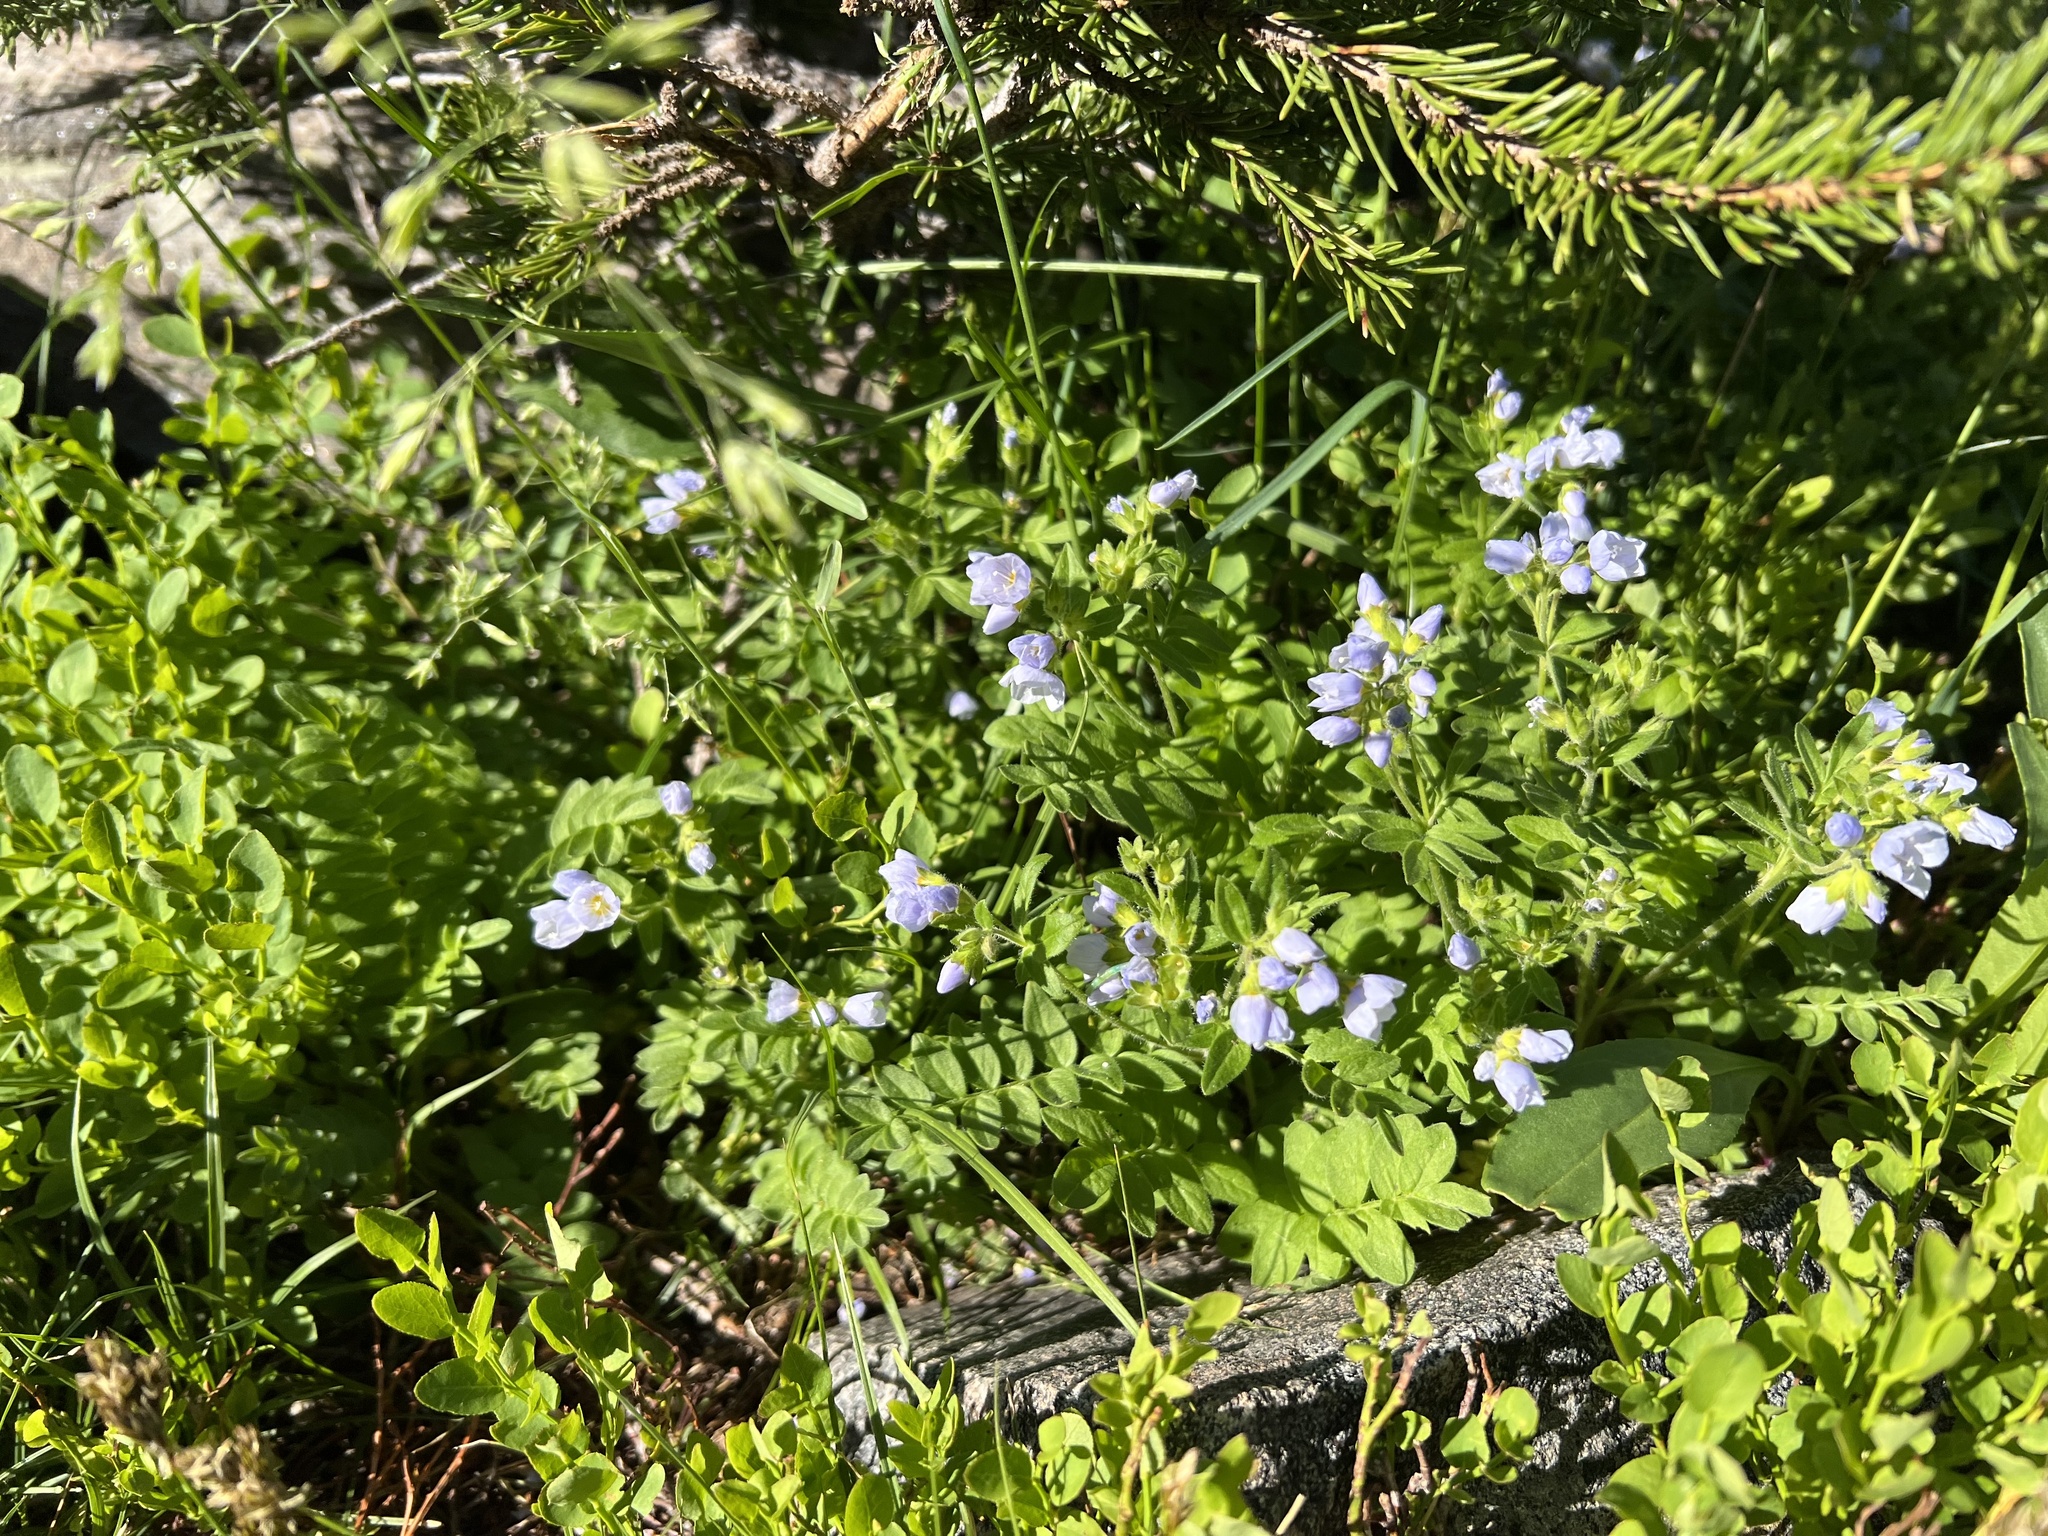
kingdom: Plantae
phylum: Tracheophyta
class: Magnoliopsida
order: Ericales
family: Polemoniaceae
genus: Polemonium
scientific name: Polemonium pulcherrimum
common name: Short jacob's-ladder
